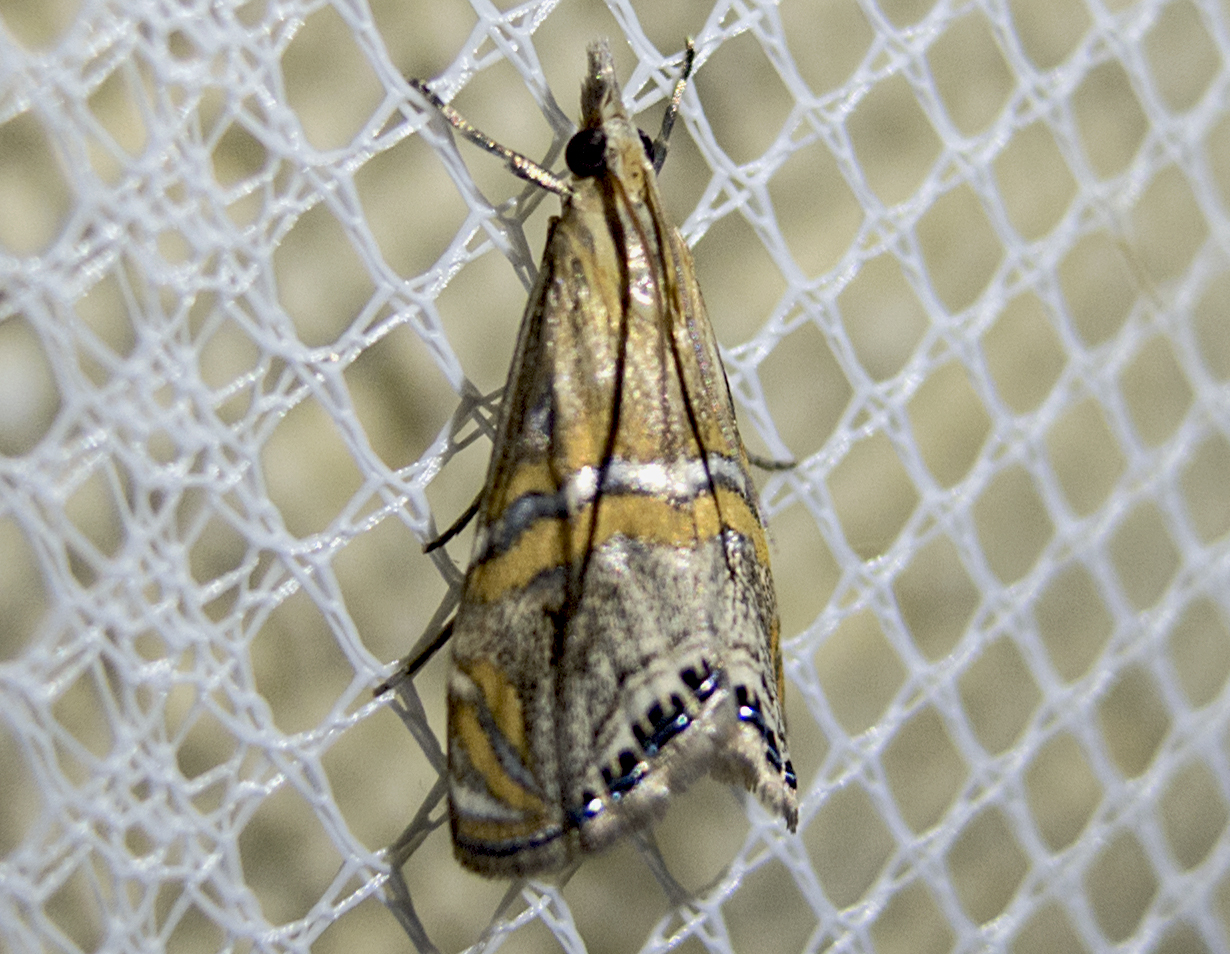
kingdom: Animalia
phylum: Arthropoda
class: Insecta
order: Lepidoptera
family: Crambidae
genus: Euchromius
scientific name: Euchromius bella
